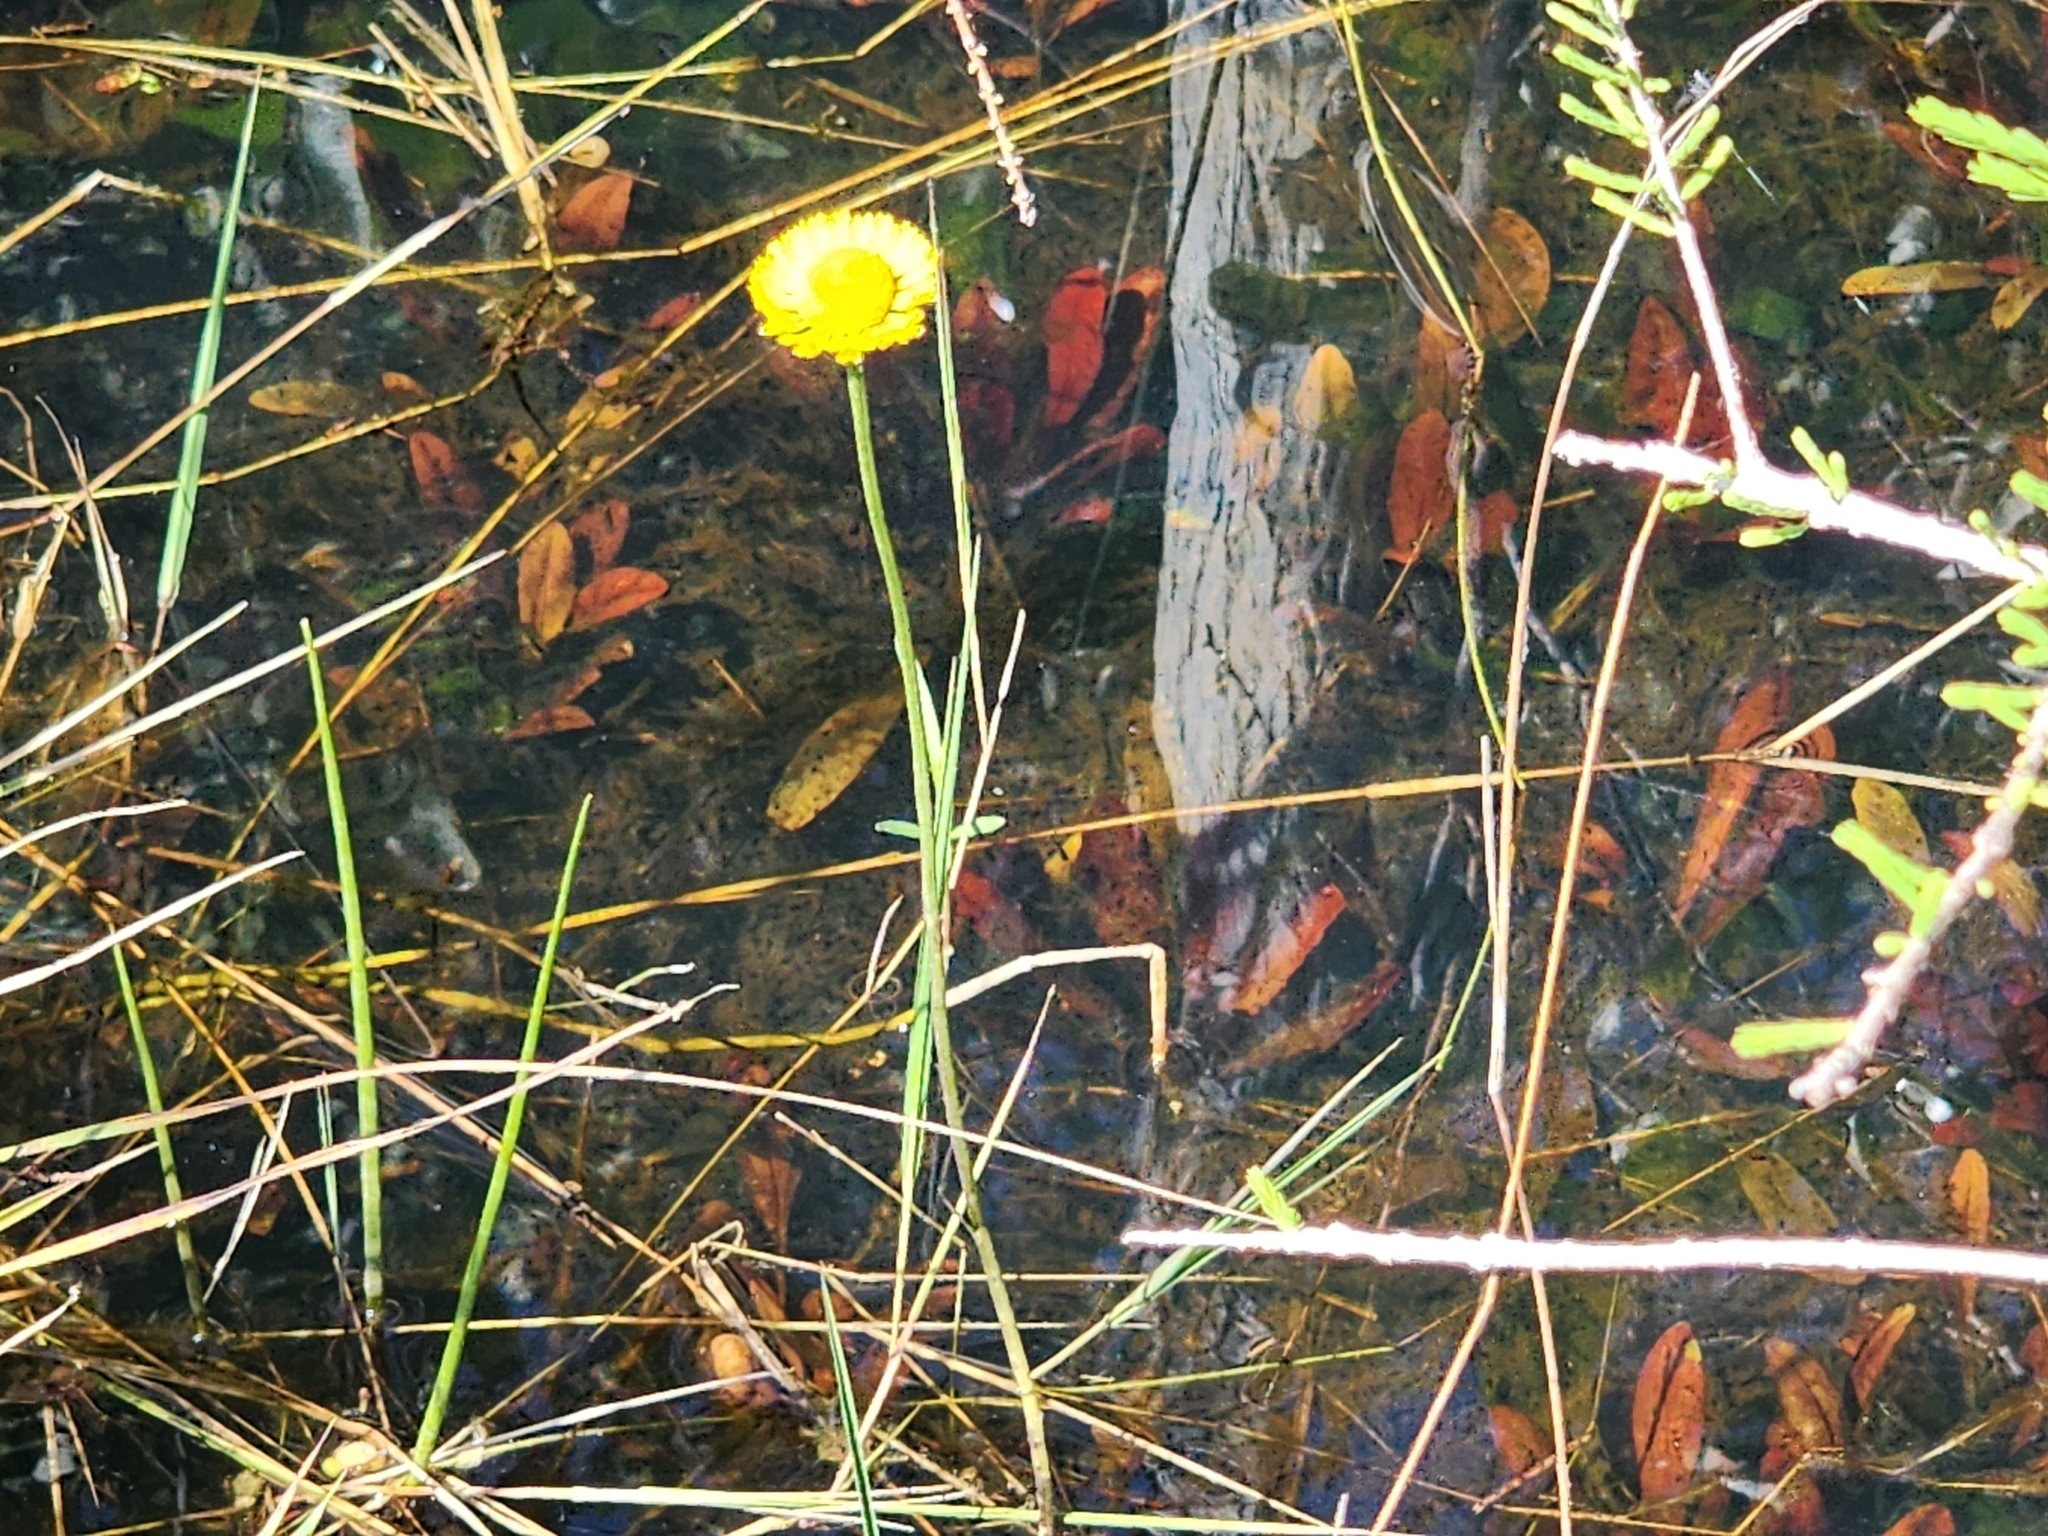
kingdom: Plantae
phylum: Tracheophyta
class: Magnoliopsida
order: Asterales
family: Asteraceae
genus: Helenium
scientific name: Helenium pinnatifidum
